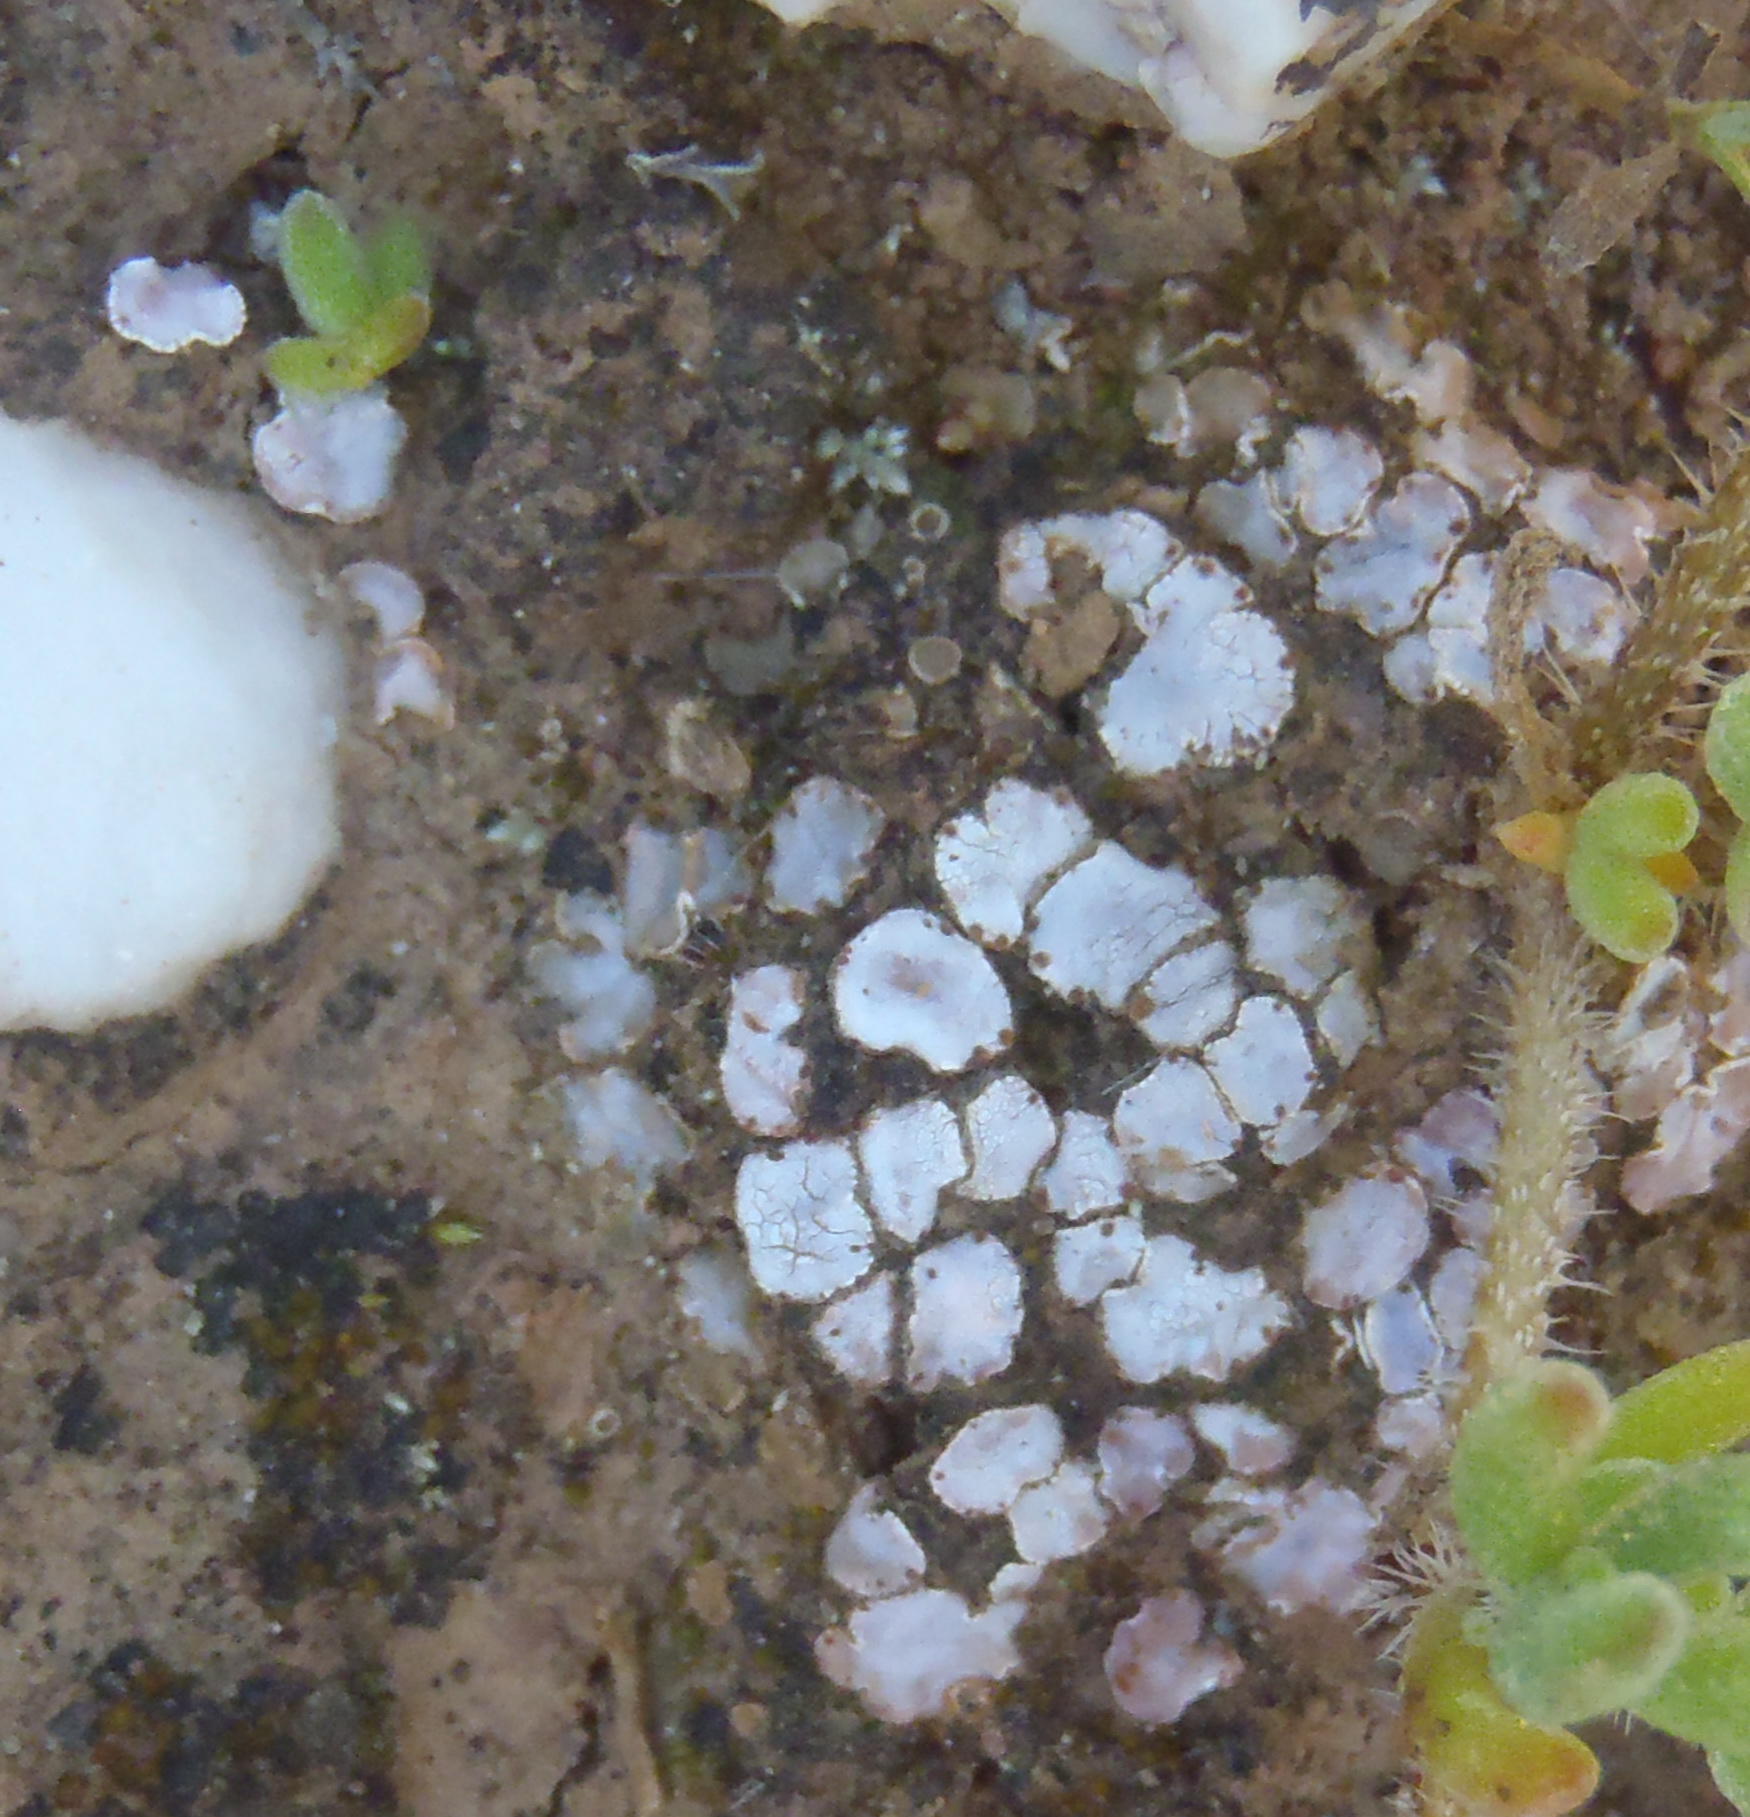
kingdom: Fungi
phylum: Ascomycota
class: Lecanoromycetes
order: Lecanorales
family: Psoraceae
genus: Psora
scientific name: Psora crenata
